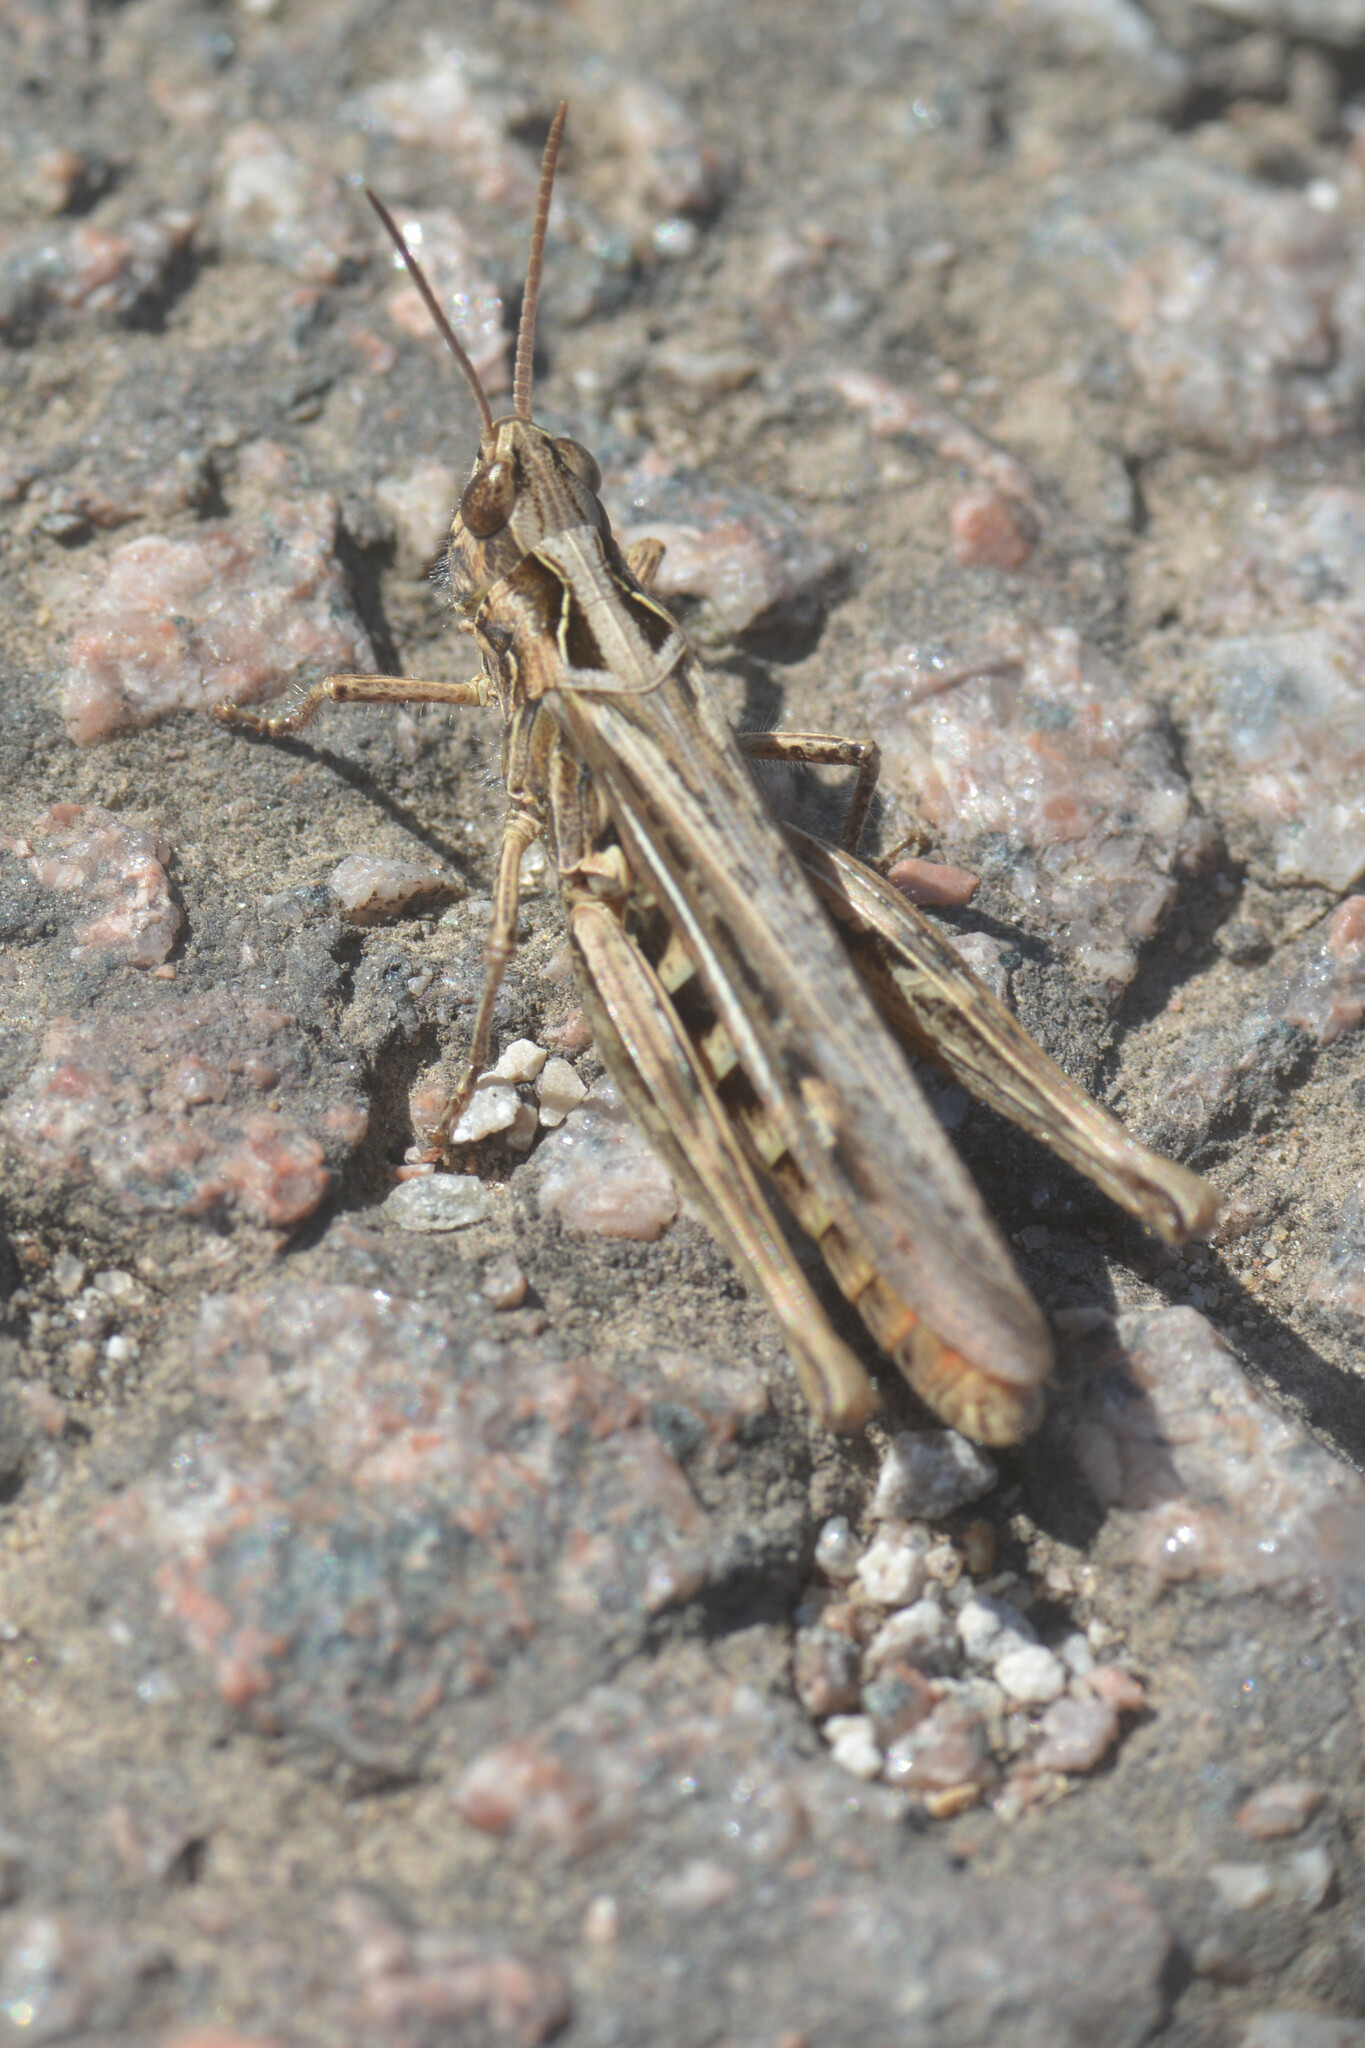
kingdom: Animalia
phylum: Arthropoda
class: Insecta
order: Orthoptera
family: Acrididae
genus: Chorthippus
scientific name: Chorthippus brunneus
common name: Field grasshopper
